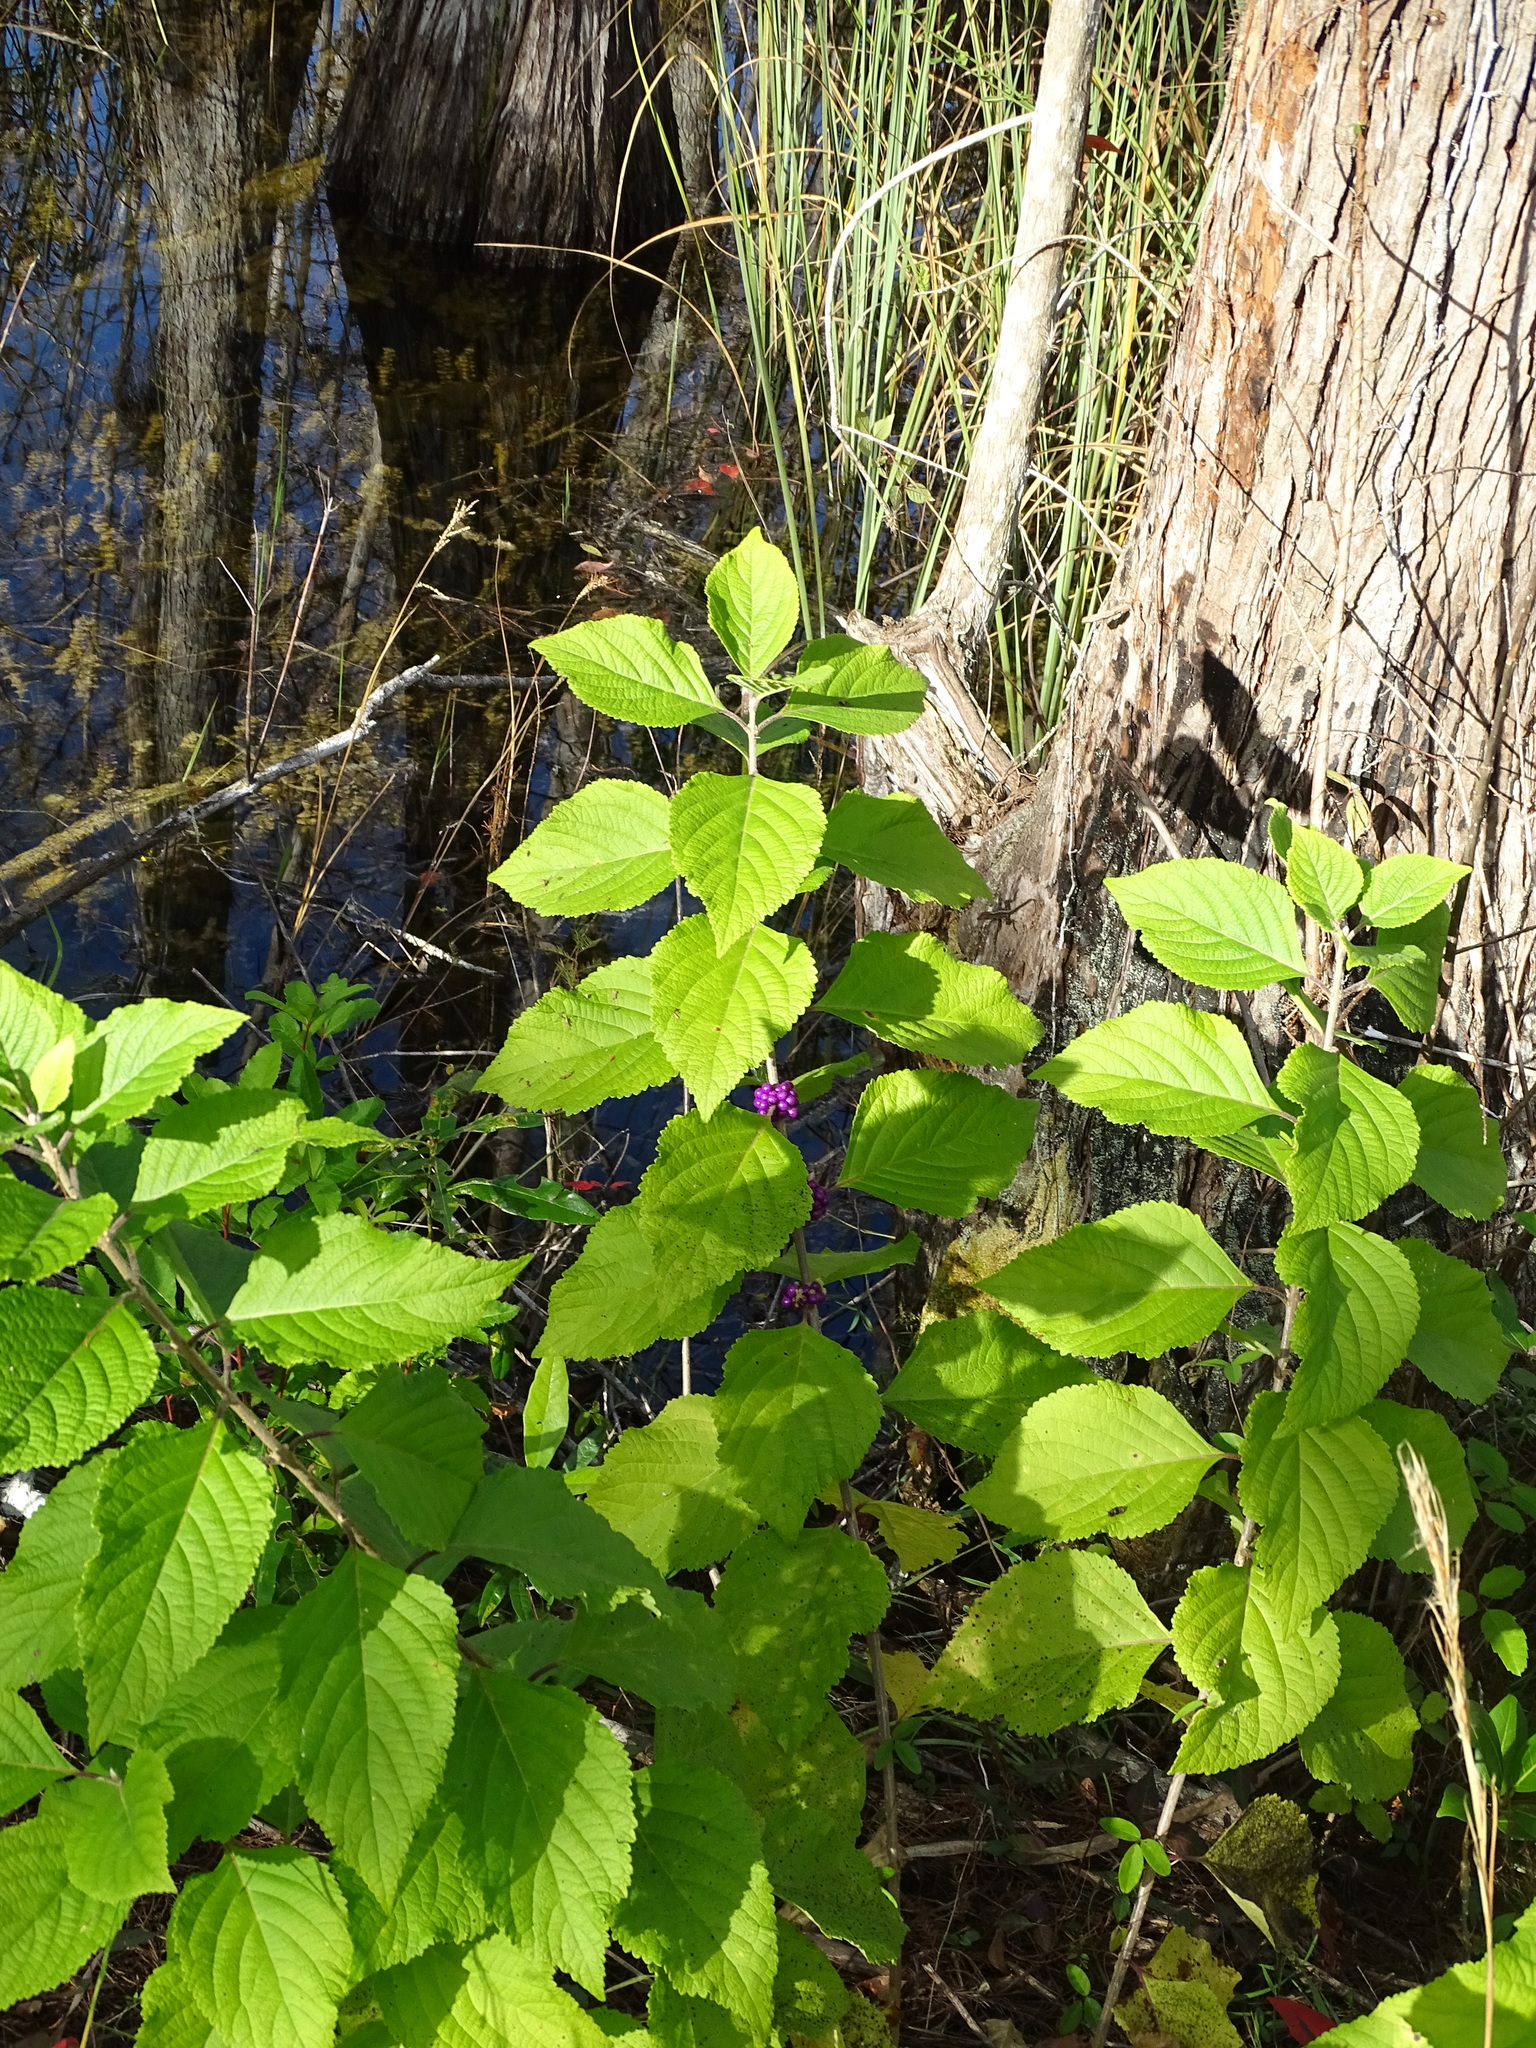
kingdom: Plantae
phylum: Tracheophyta
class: Magnoliopsida
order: Lamiales
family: Lamiaceae
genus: Callicarpa
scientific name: Callicarpa americana
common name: American beautyberry
